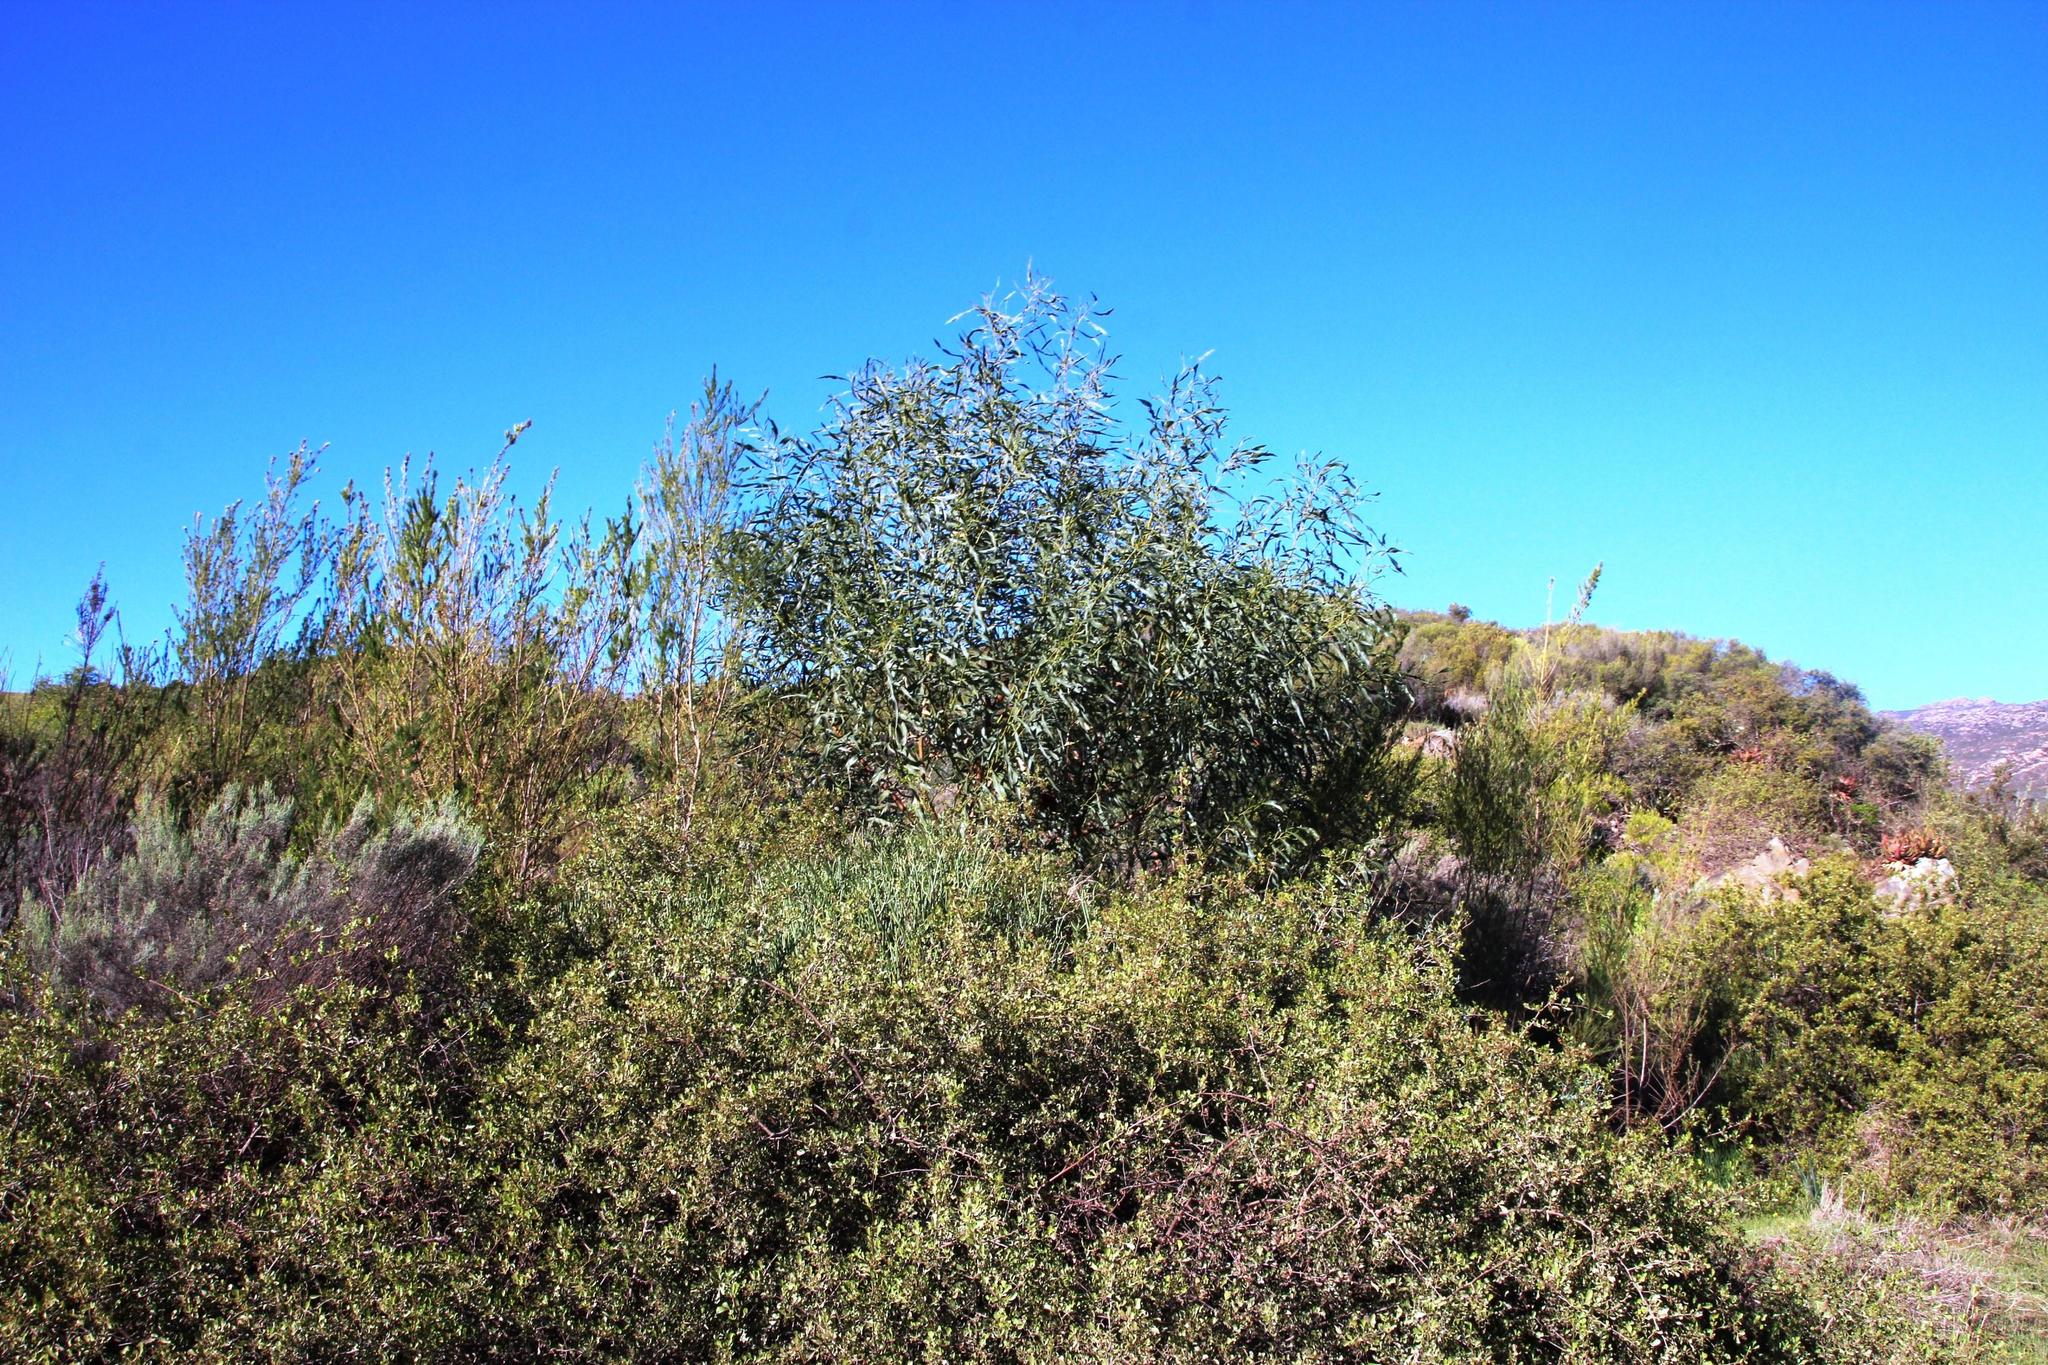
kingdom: Plantae
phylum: Tracheophyta
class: Magnoliopsida
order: Fabales
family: Fabaceae
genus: Acacia
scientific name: Acacia saligna
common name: Orange wattle
